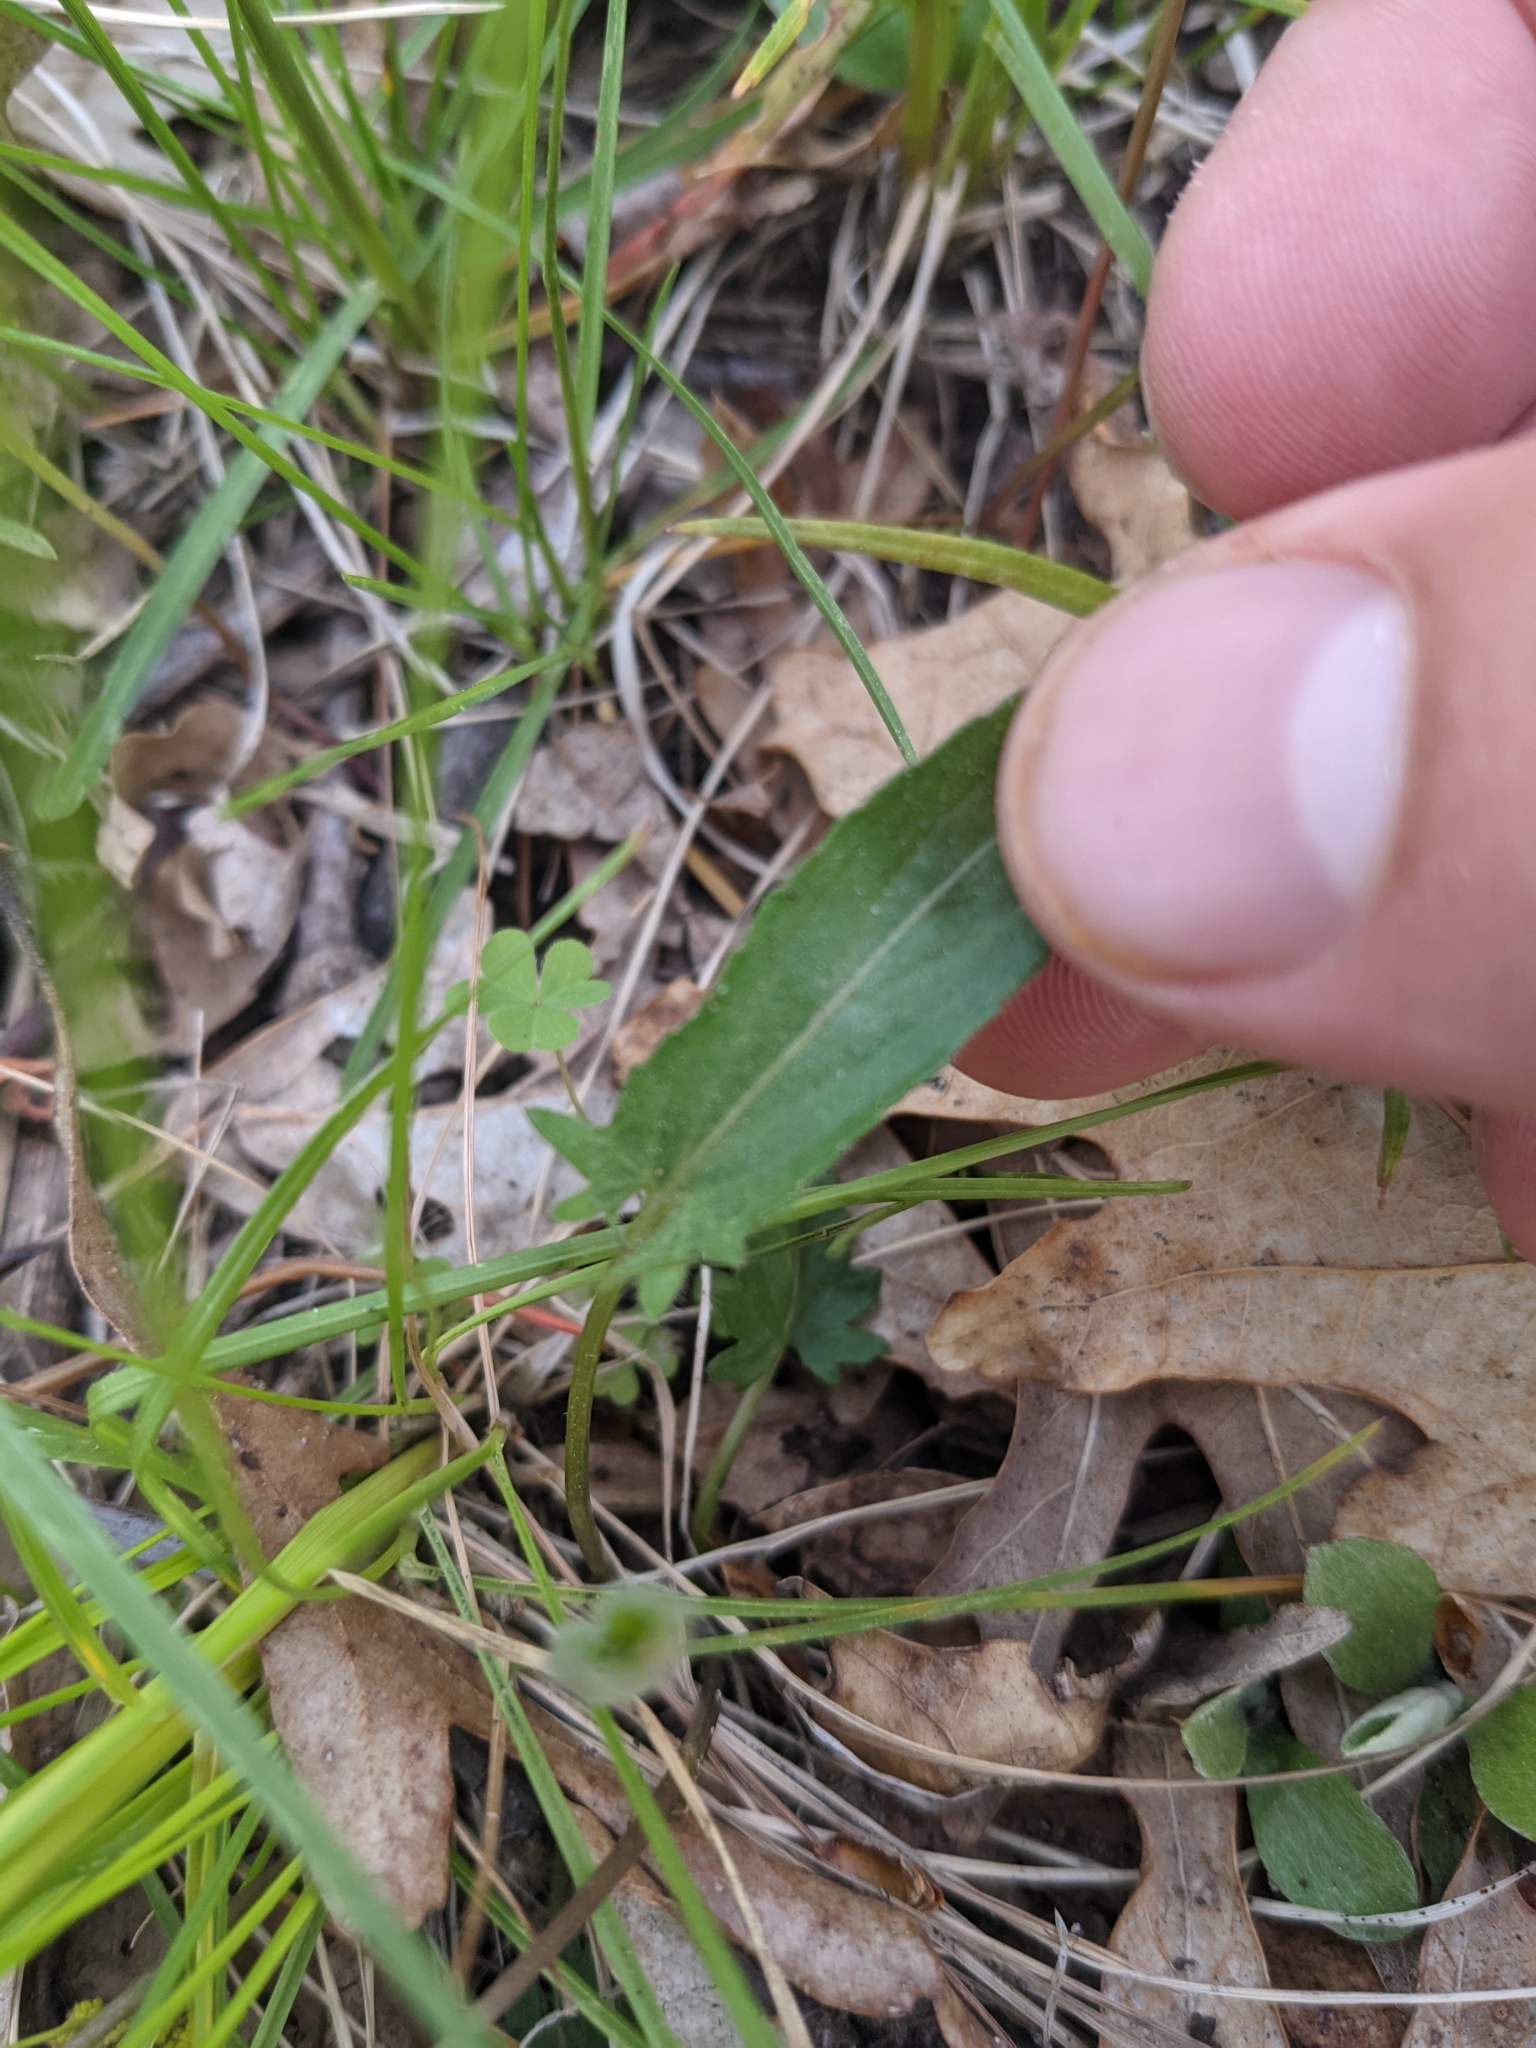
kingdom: Plantae
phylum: Tracheophyta
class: Magnoliopsida
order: Malpighiales
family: Violaceae
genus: Viola
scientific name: Viola sagittata
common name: Arrowhead violet
